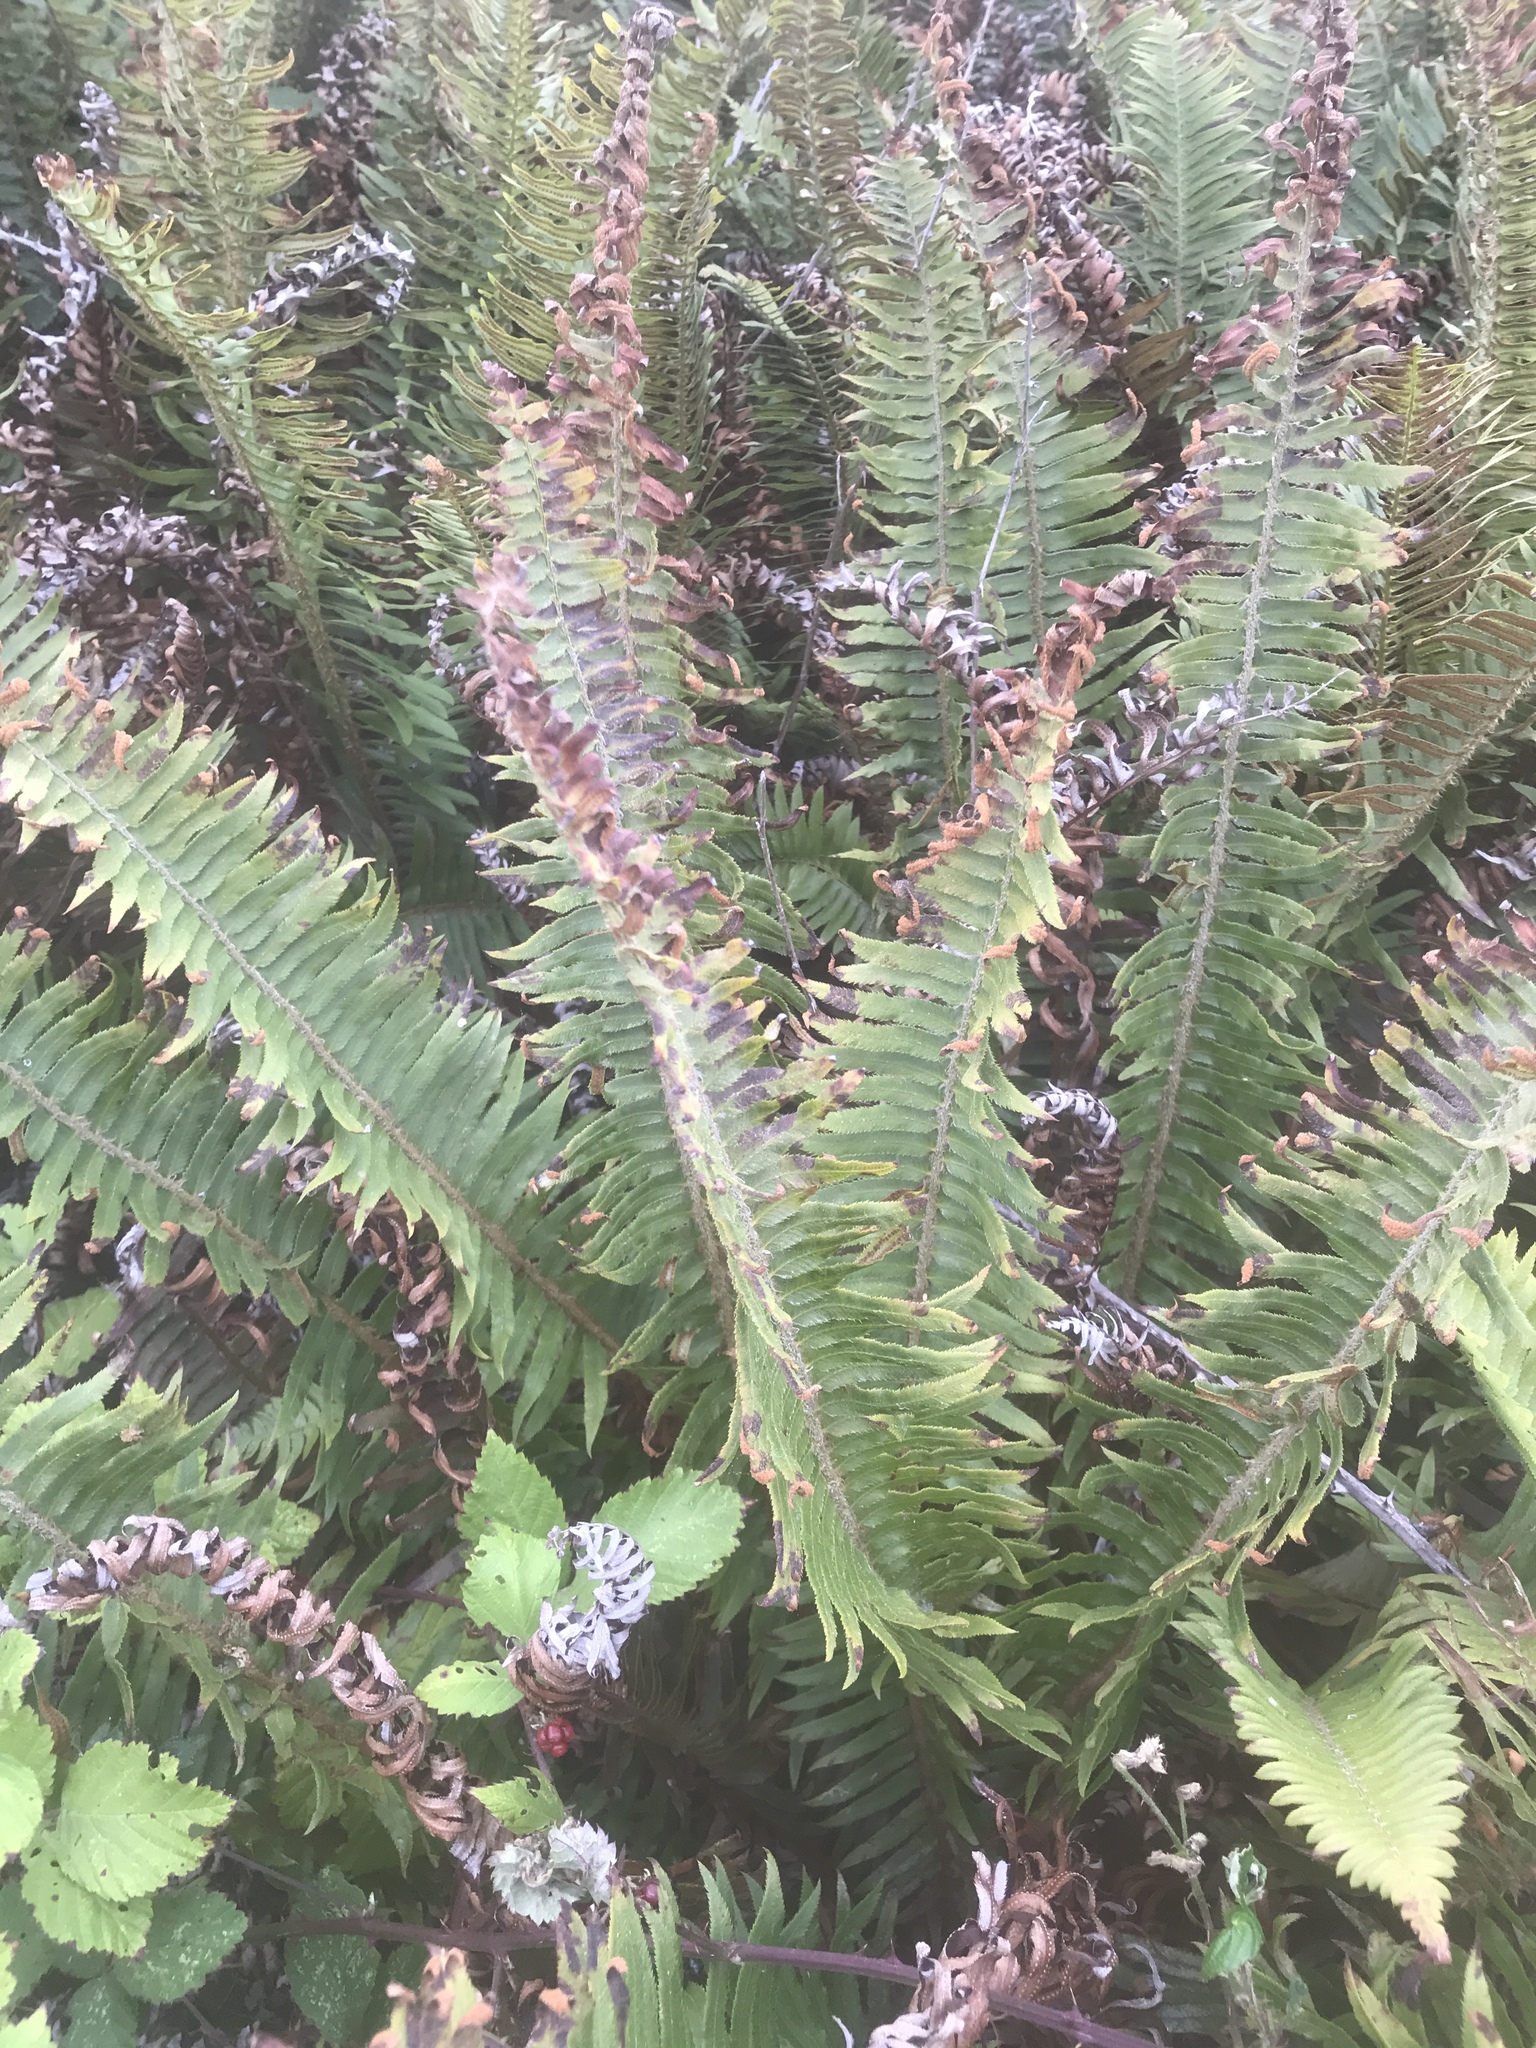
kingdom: Plantae
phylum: Tracheophyta
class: Polypodiopsida
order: Polypodiales
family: Dryopteridaceae
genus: Polystichum
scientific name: Polystichum munitum
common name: Western sword-fern
